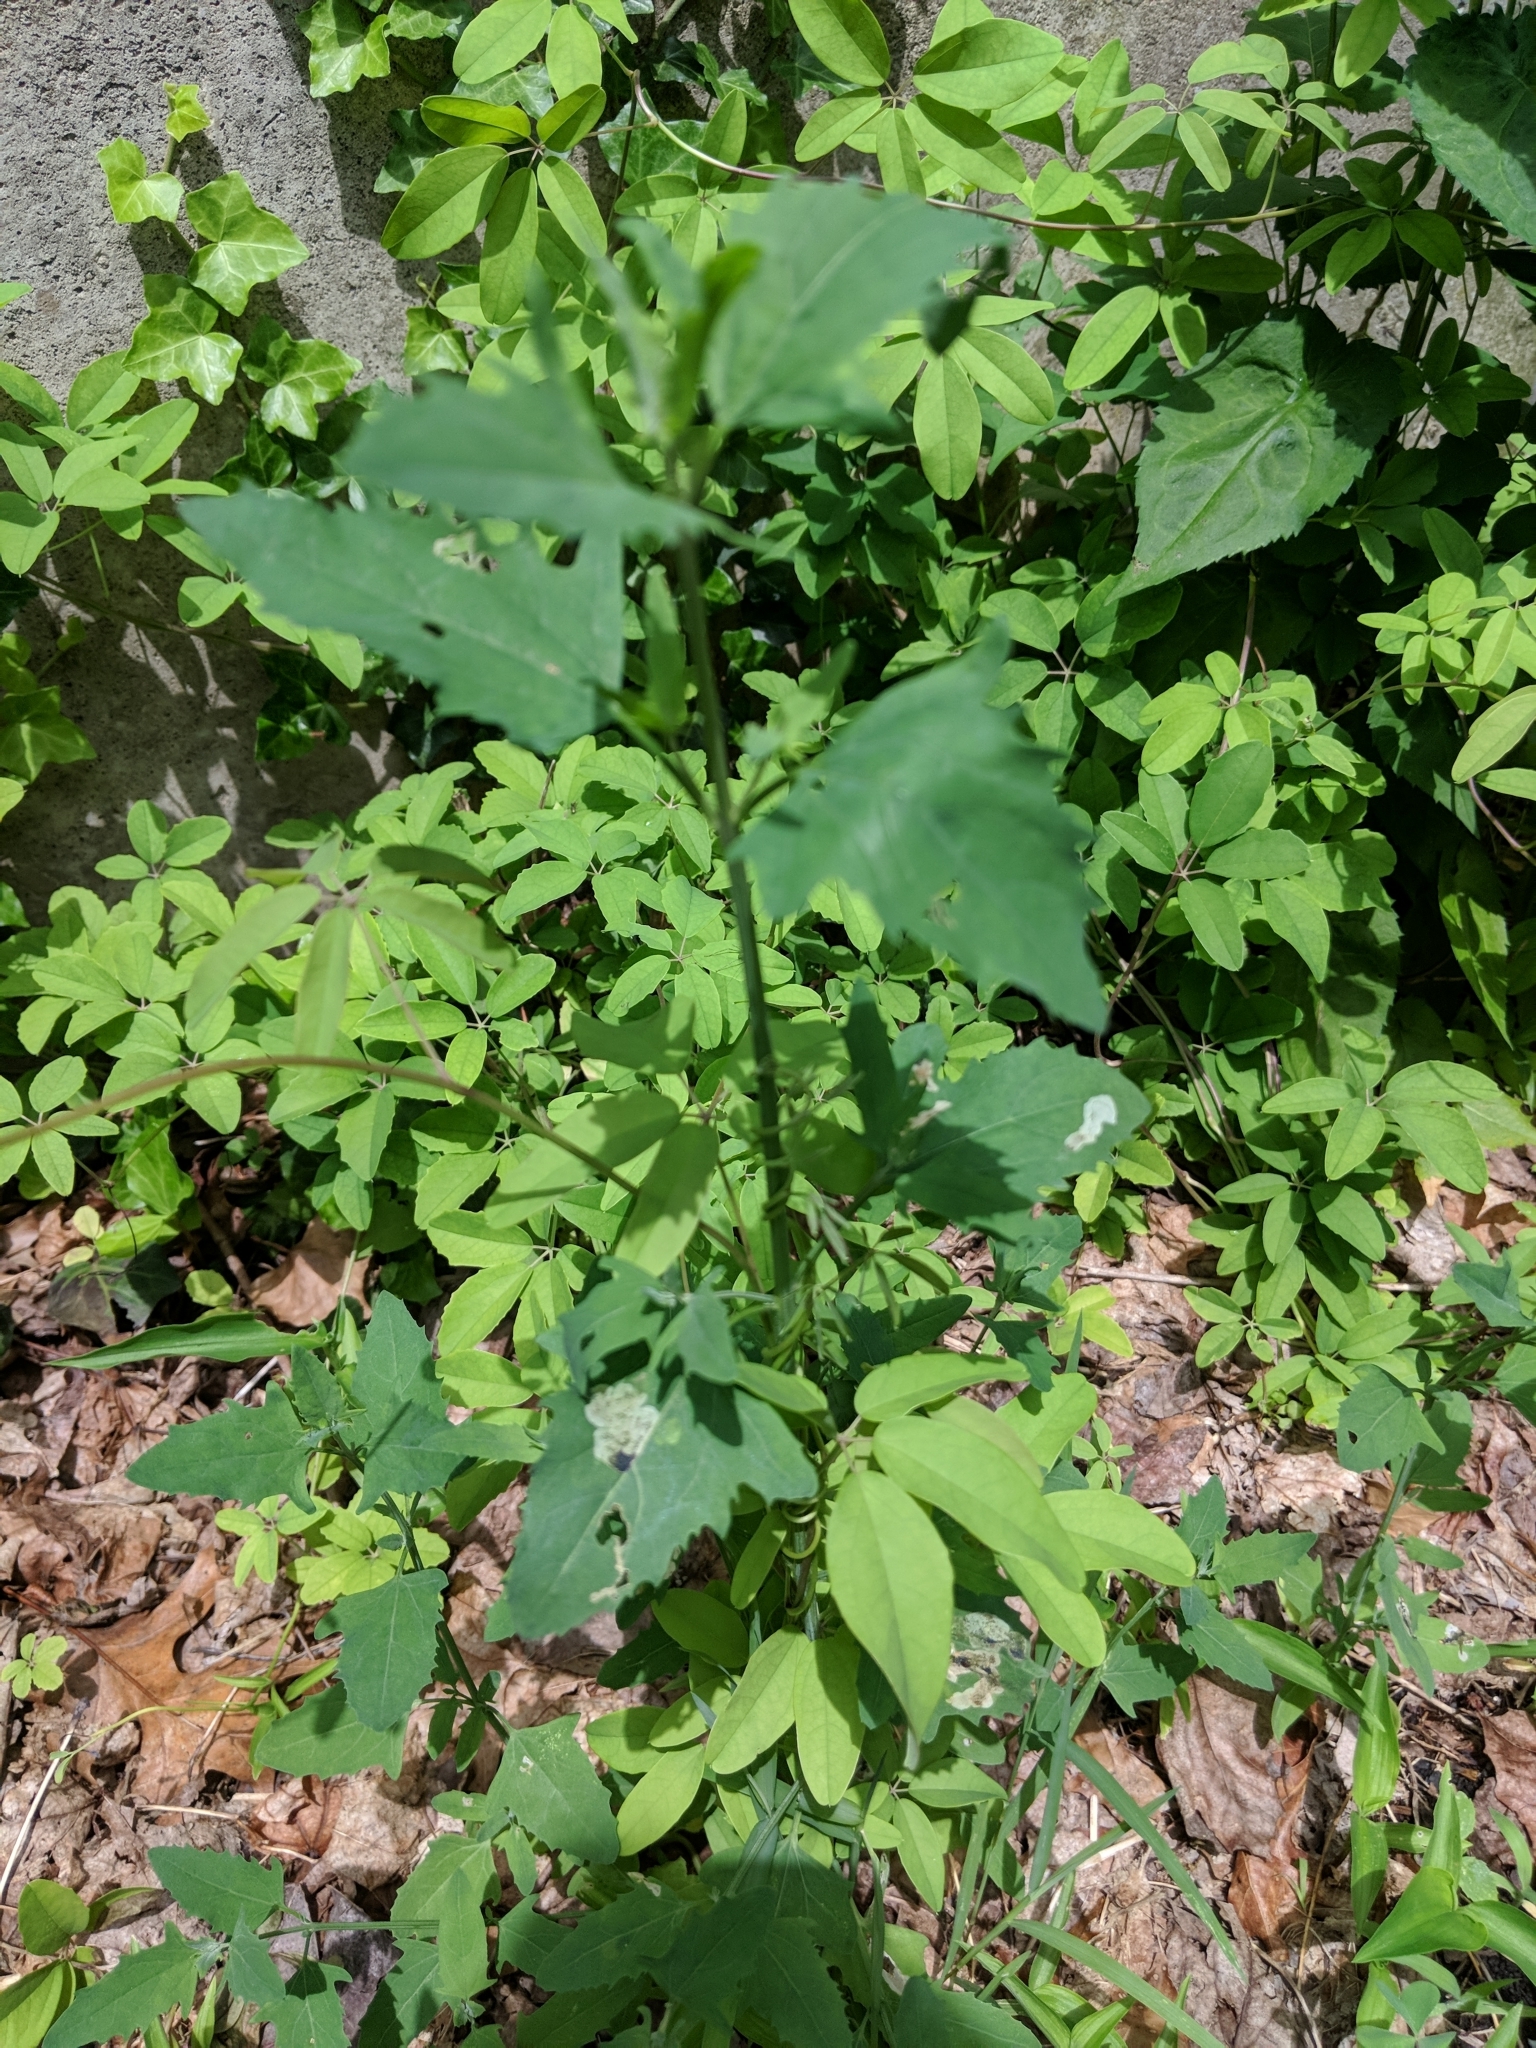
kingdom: Plantae
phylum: Tracheophyta
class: Magnoliopsida
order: Caryophyllales
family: Amaranthaceae
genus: Chenopodium
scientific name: Chenopodium album
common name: Fat-hen
